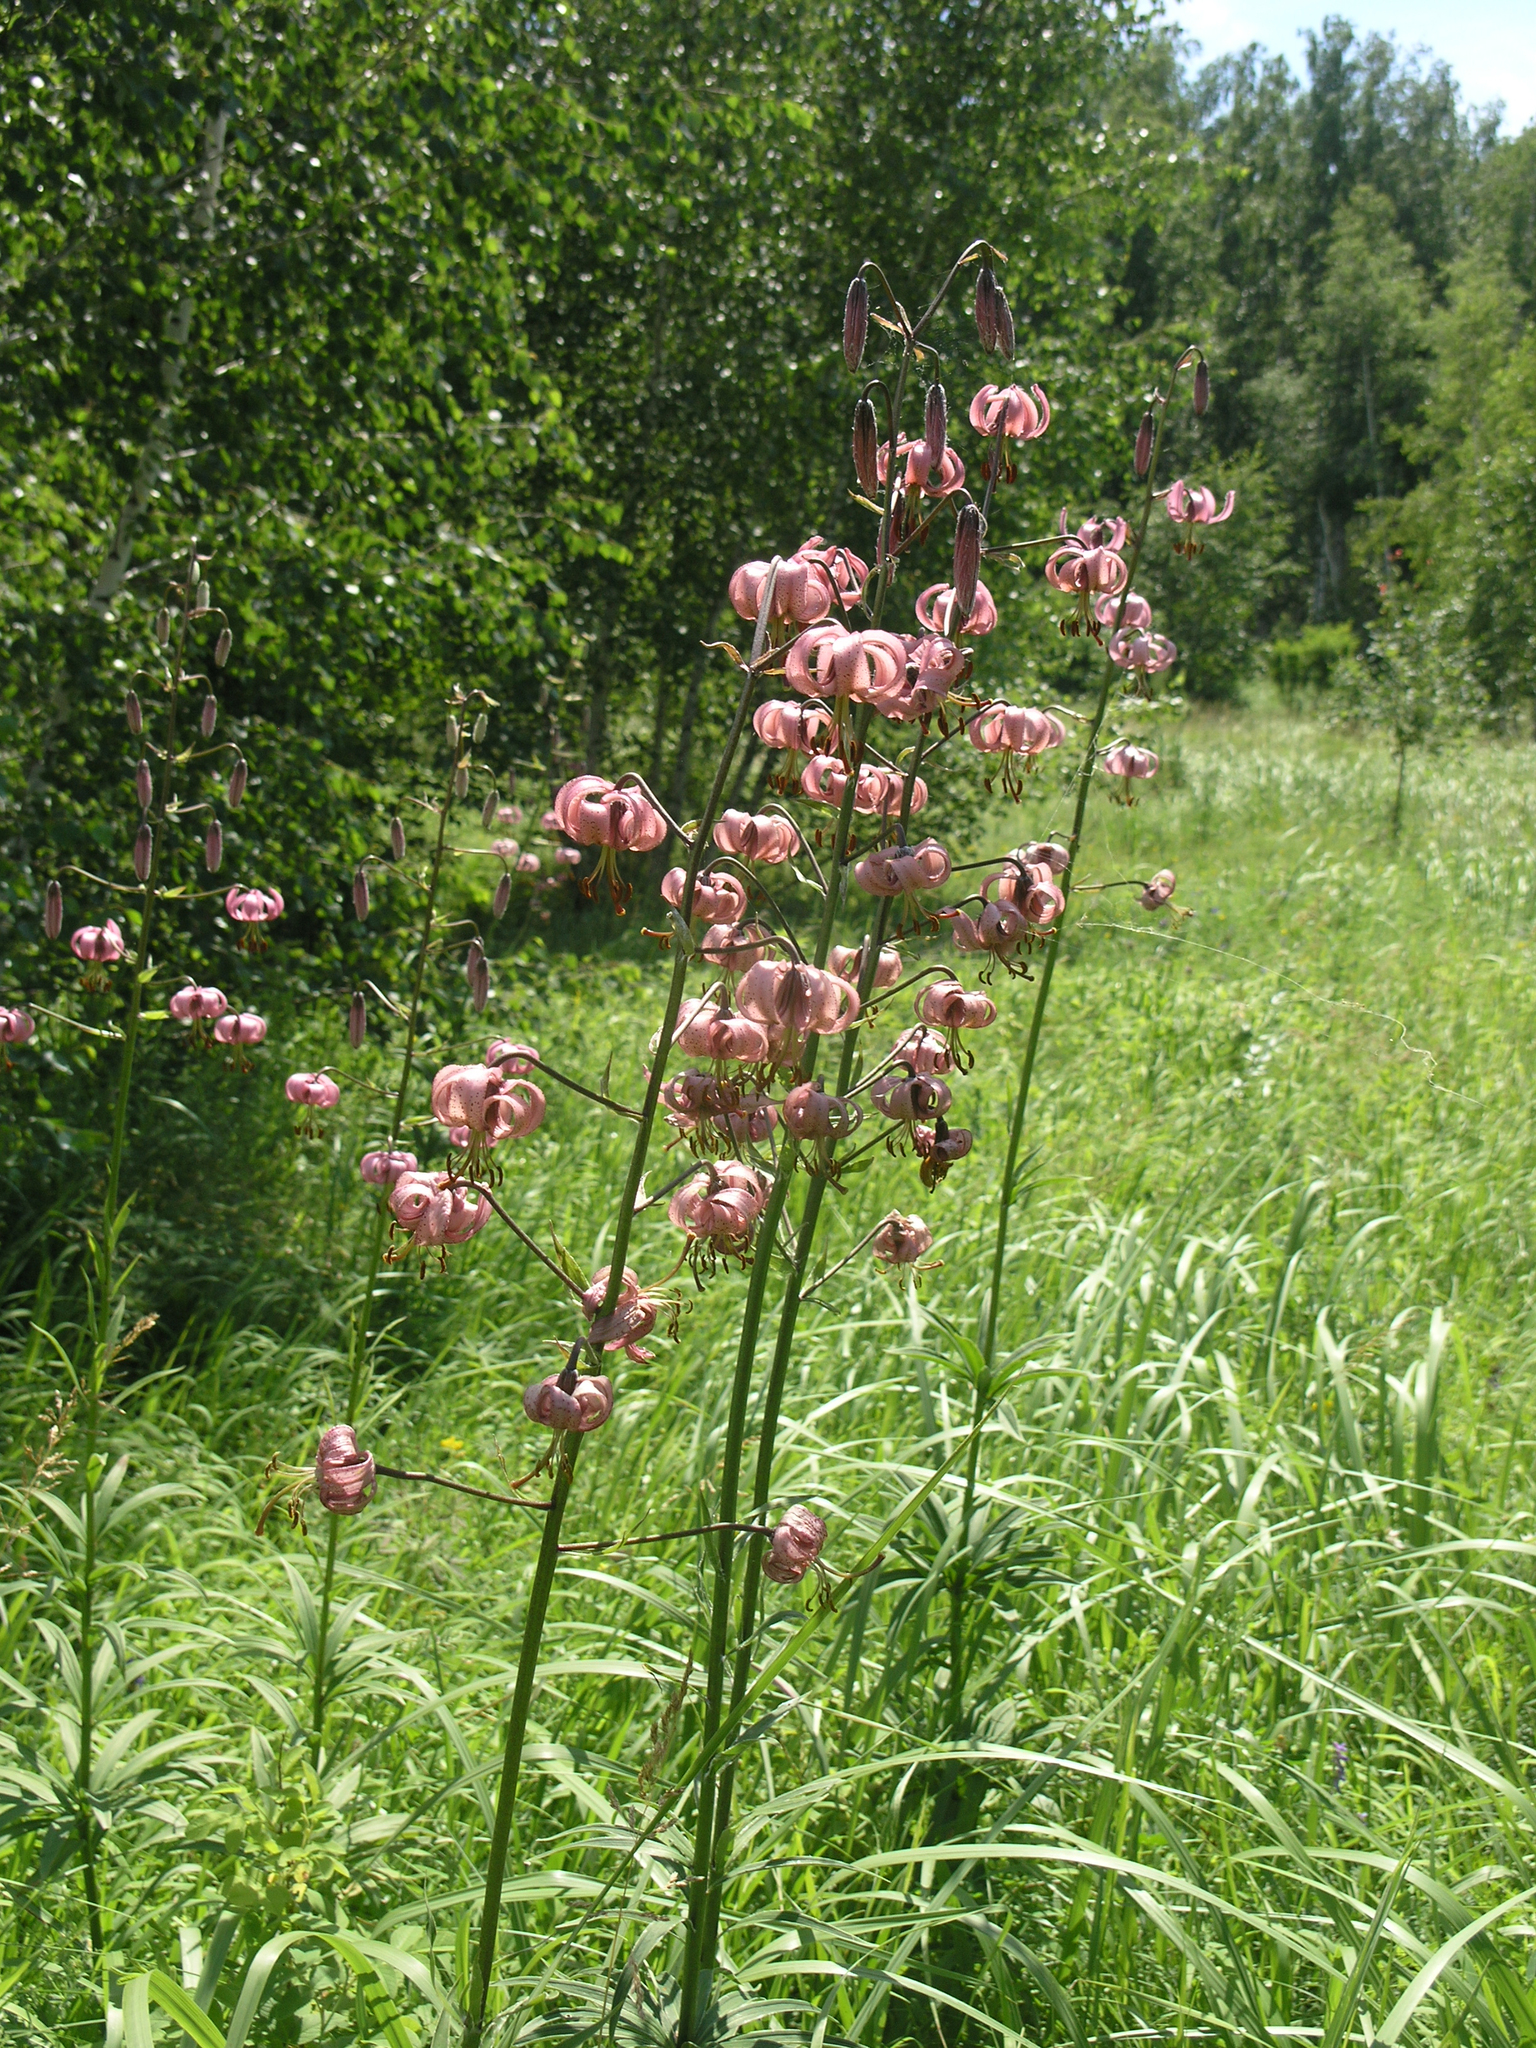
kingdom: Plantae
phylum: Tracheophyta
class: Liliopsida
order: Liliales
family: Liliaceae
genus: Lilium
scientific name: Lilium martagon
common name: Martagon lily
